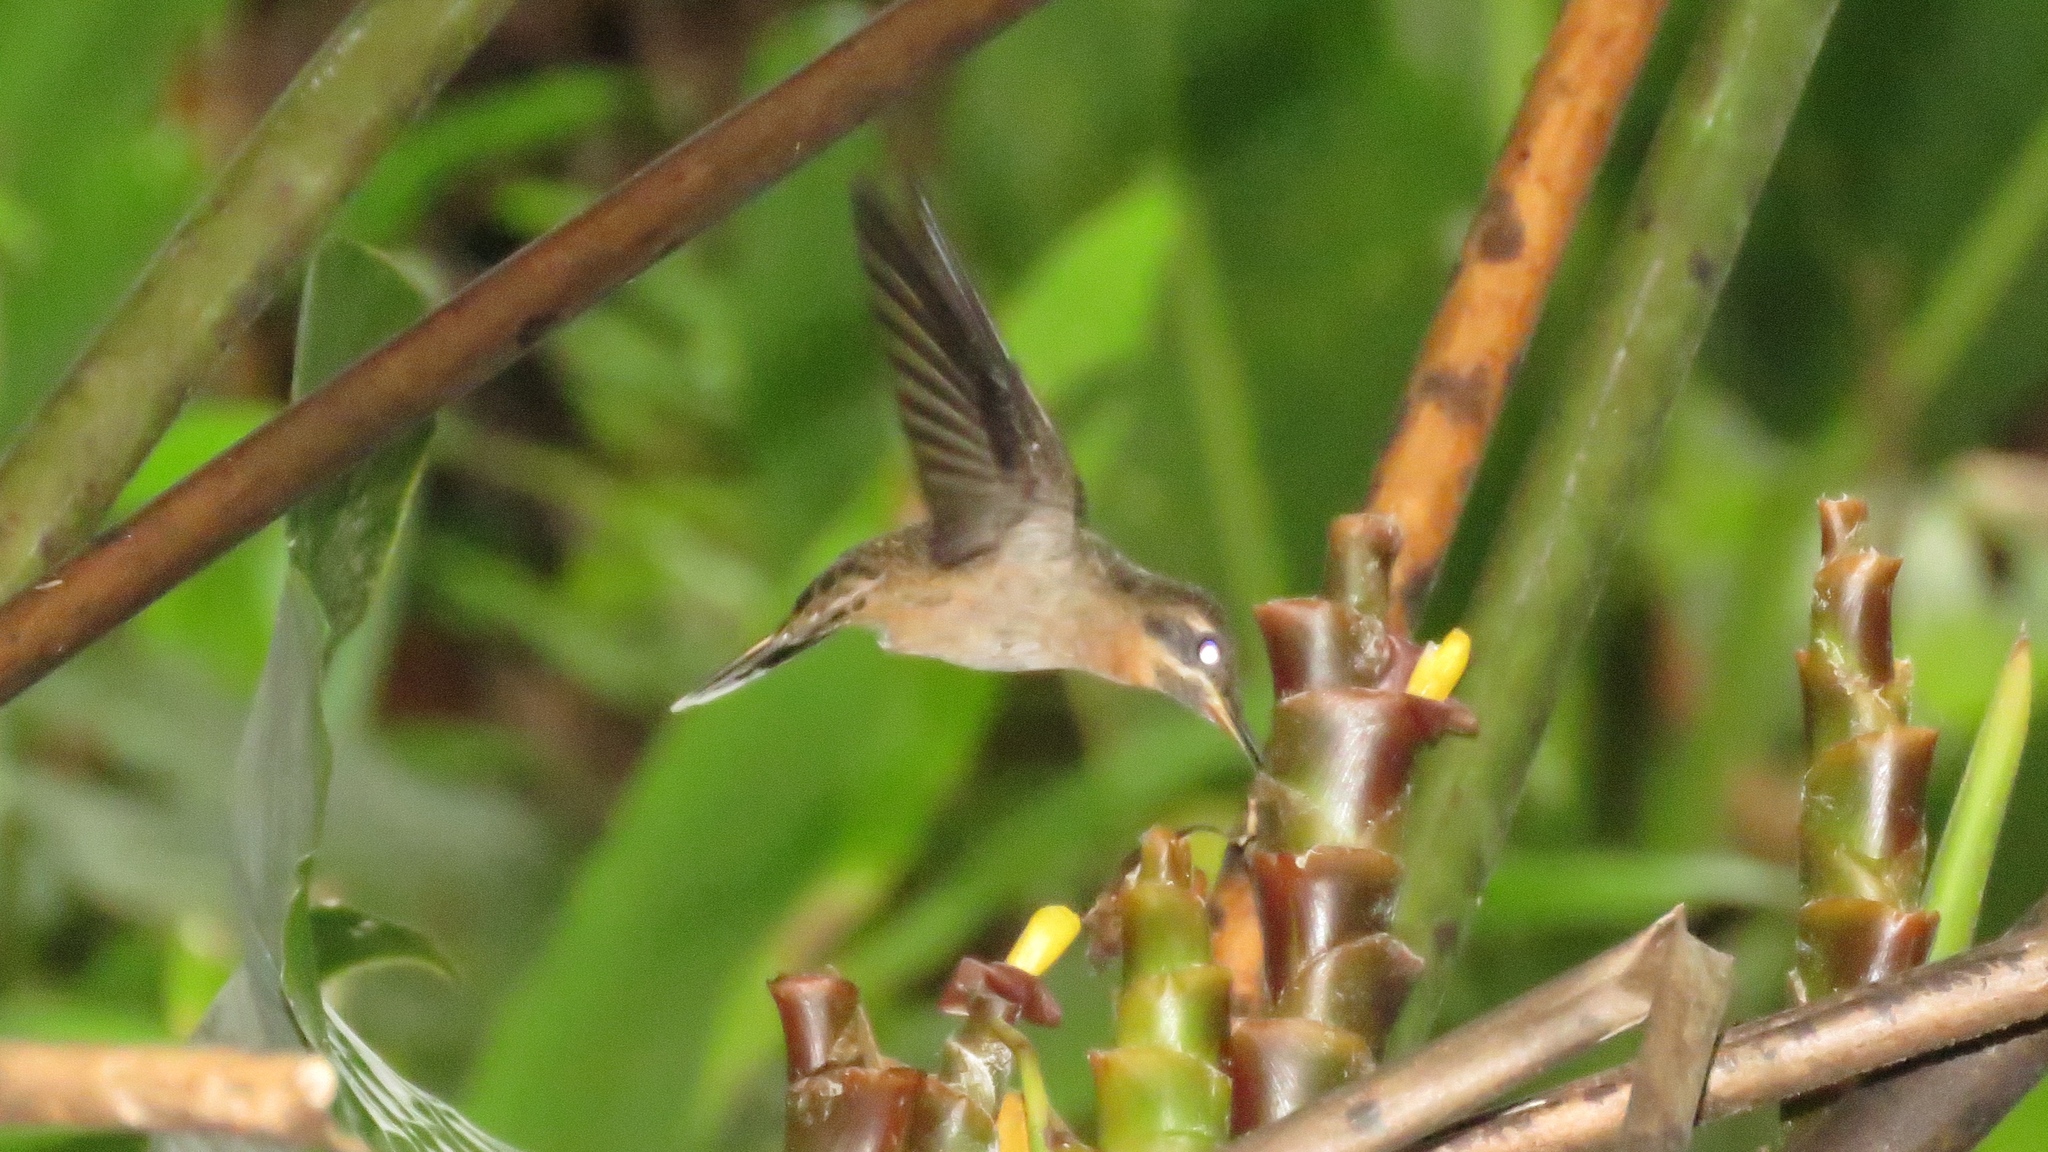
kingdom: Animalia
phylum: Chordata
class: Aves
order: Apodiformes
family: Trochilidae
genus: Threnetes
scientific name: Threnetes ruckeri
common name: Band-tailed barbthroat
